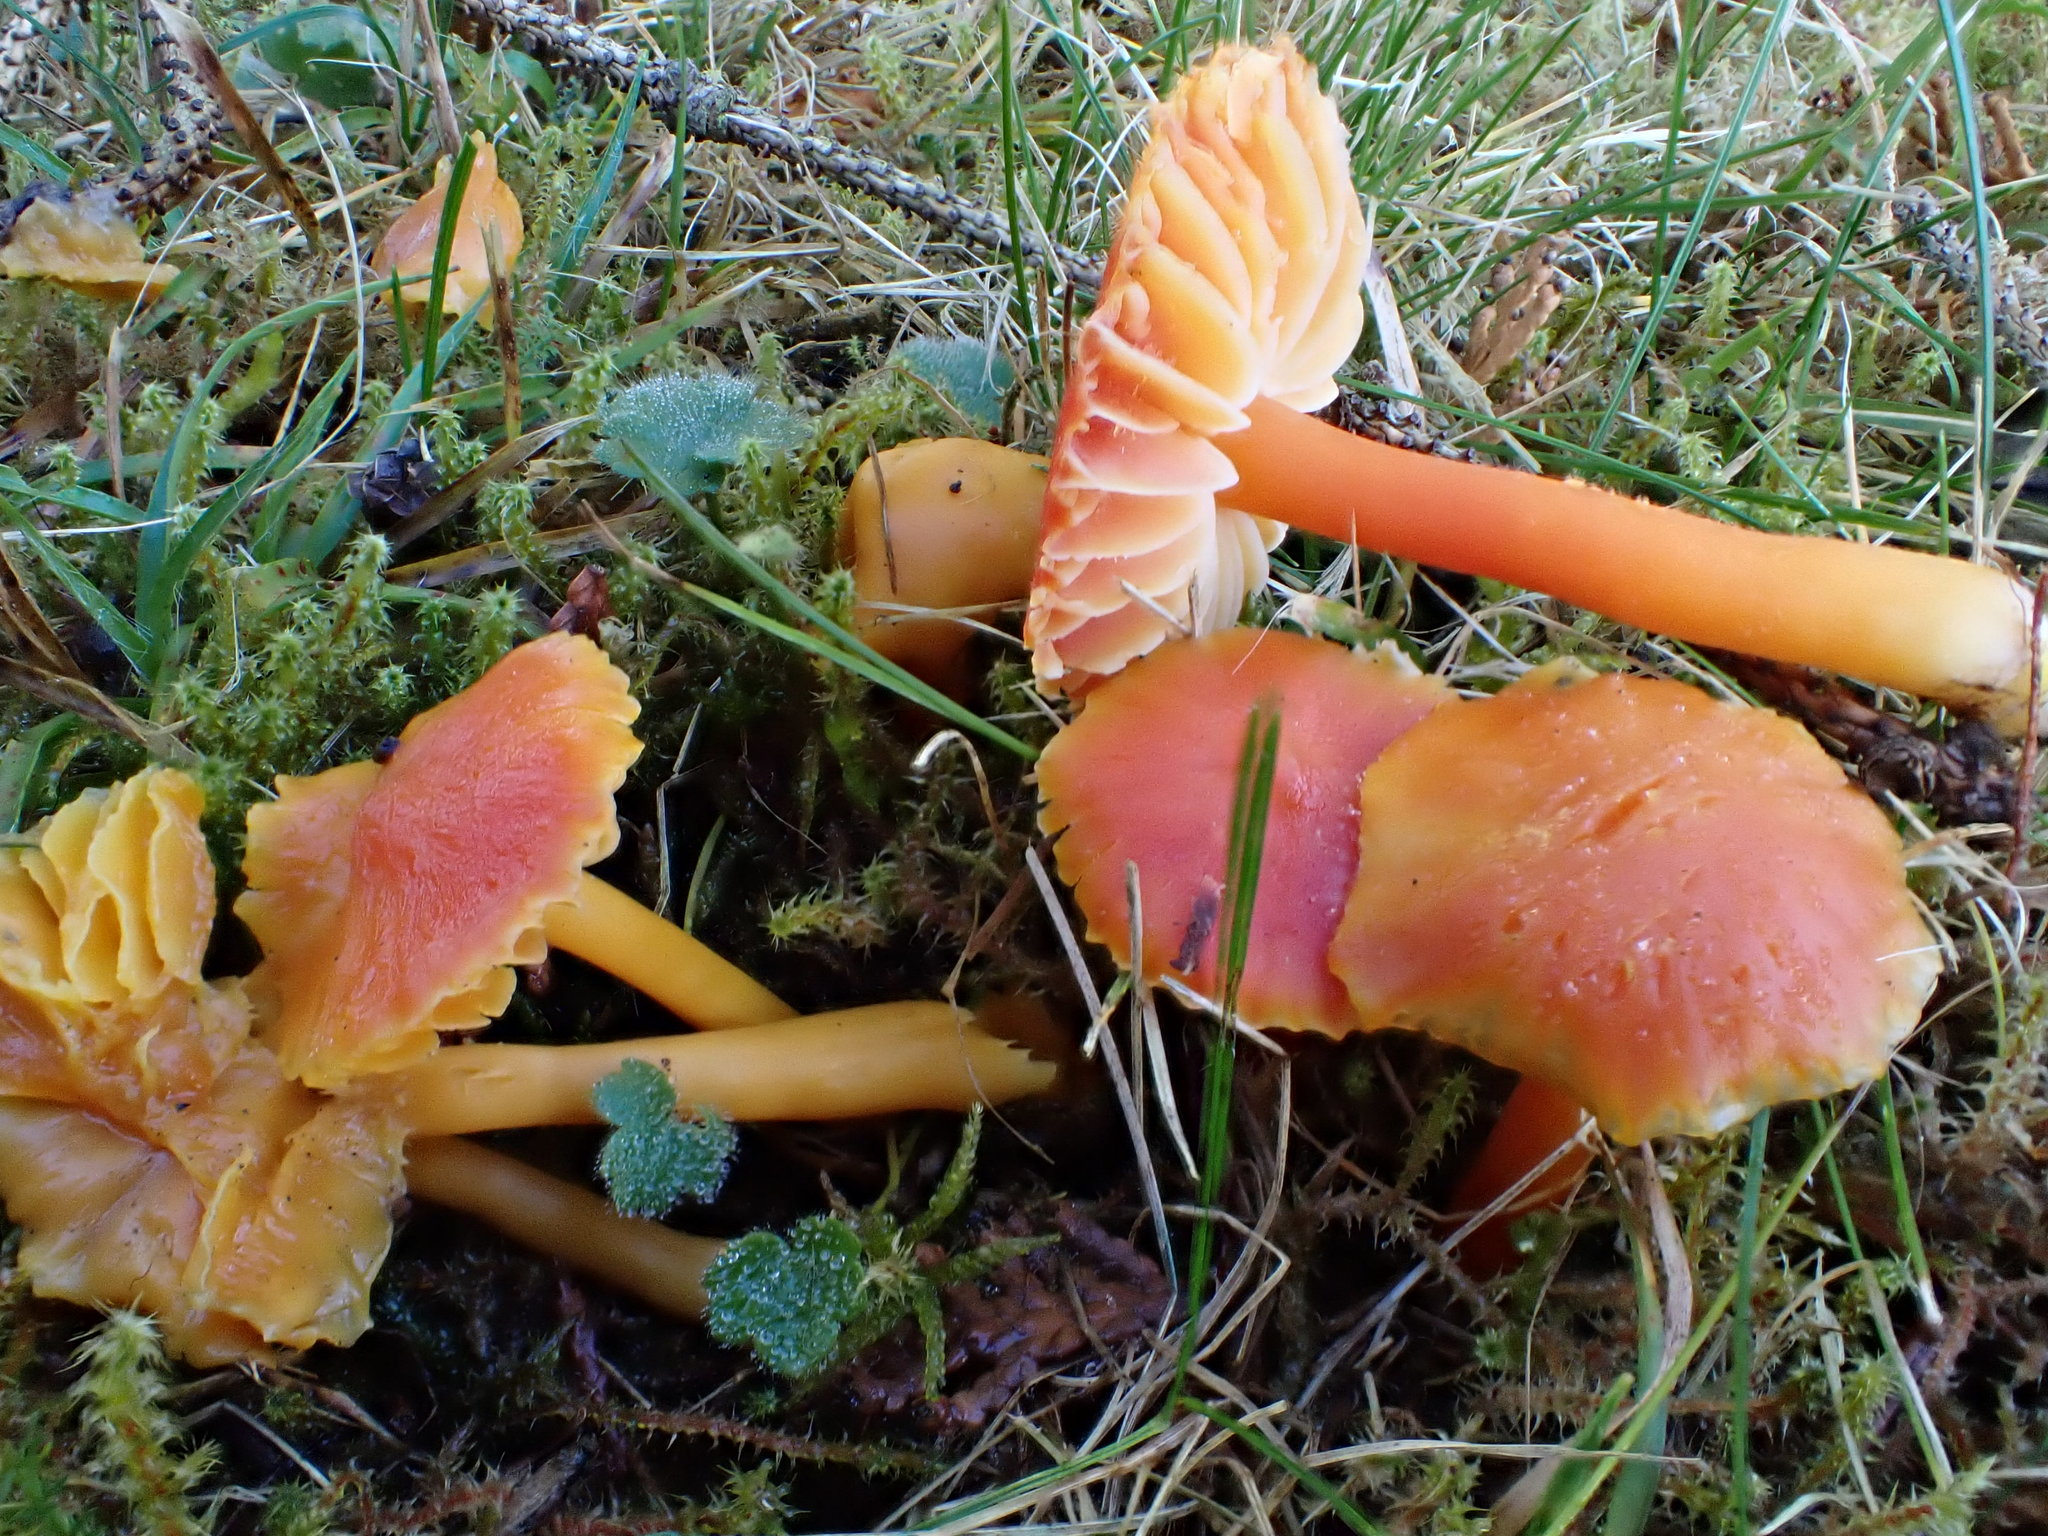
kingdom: Fungi
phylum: Basidiomycota
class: Agaricomycetes
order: Agaricales
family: Hygrophoraceae
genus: Hygrocybe
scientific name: Hygrocybe coccinea
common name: Scarlet hood
